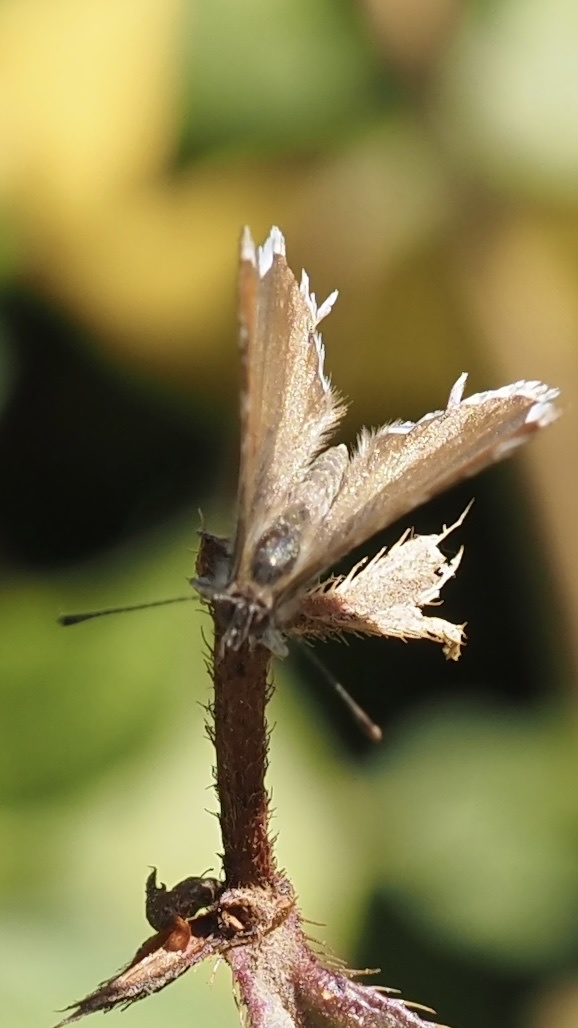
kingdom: Animalia
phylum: Arthropoda
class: Insecta
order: Lepidoptera
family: Lycaenidae
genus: Cacyreus
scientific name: Cacyreus marshalli
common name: Geranium bronze
